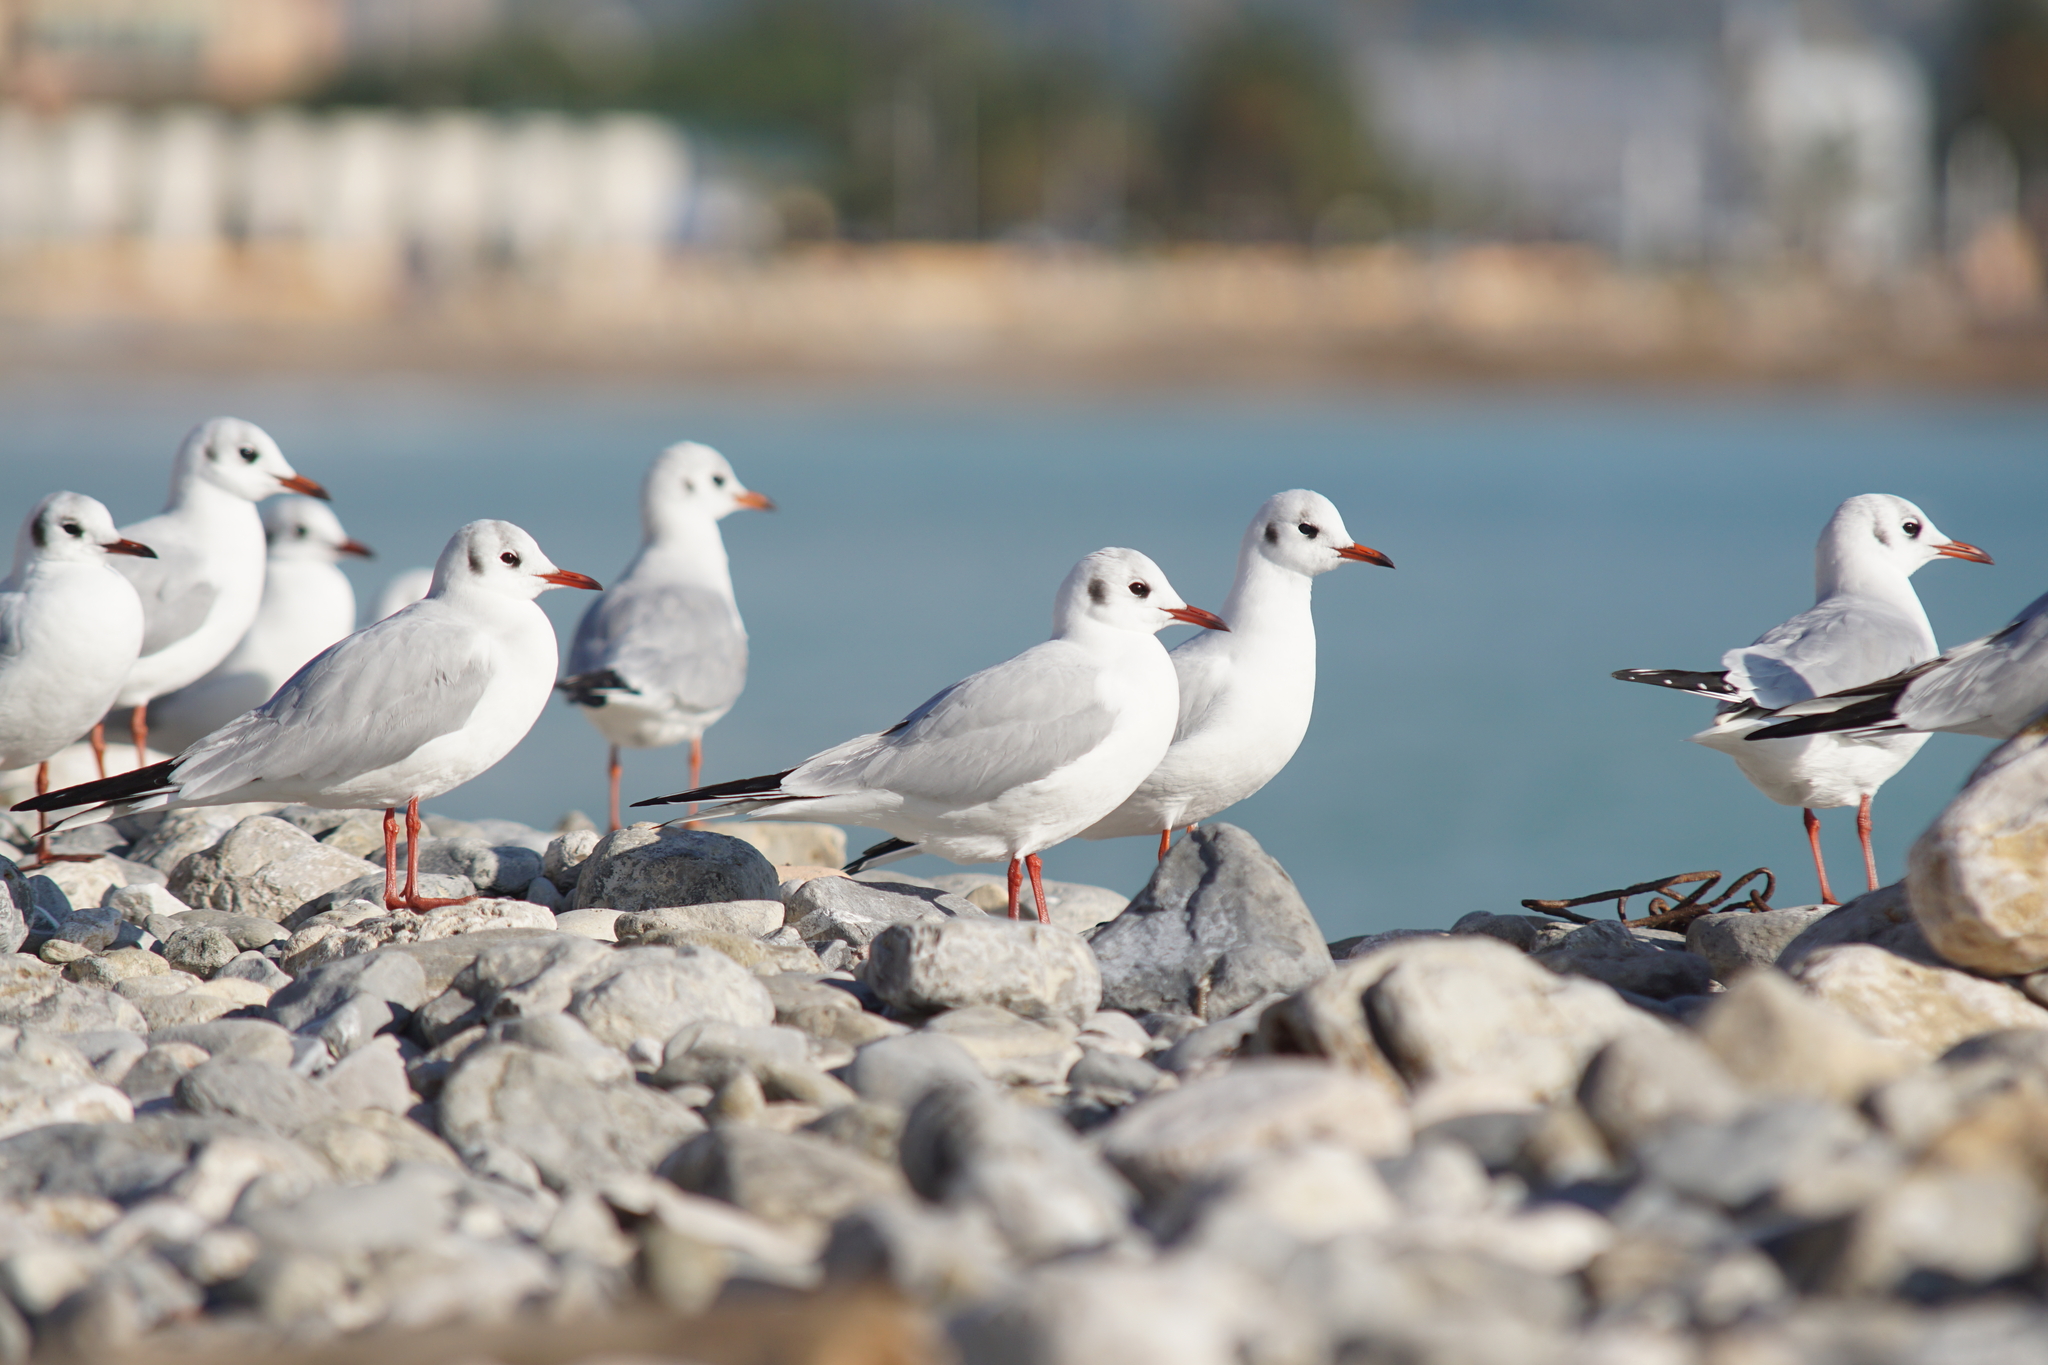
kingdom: Animalia
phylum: Chordata
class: Aves
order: Charadriiformes
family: Laridae
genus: Chroicocephalus
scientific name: Chroicocephalus ridibundus
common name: Black-headed gull
